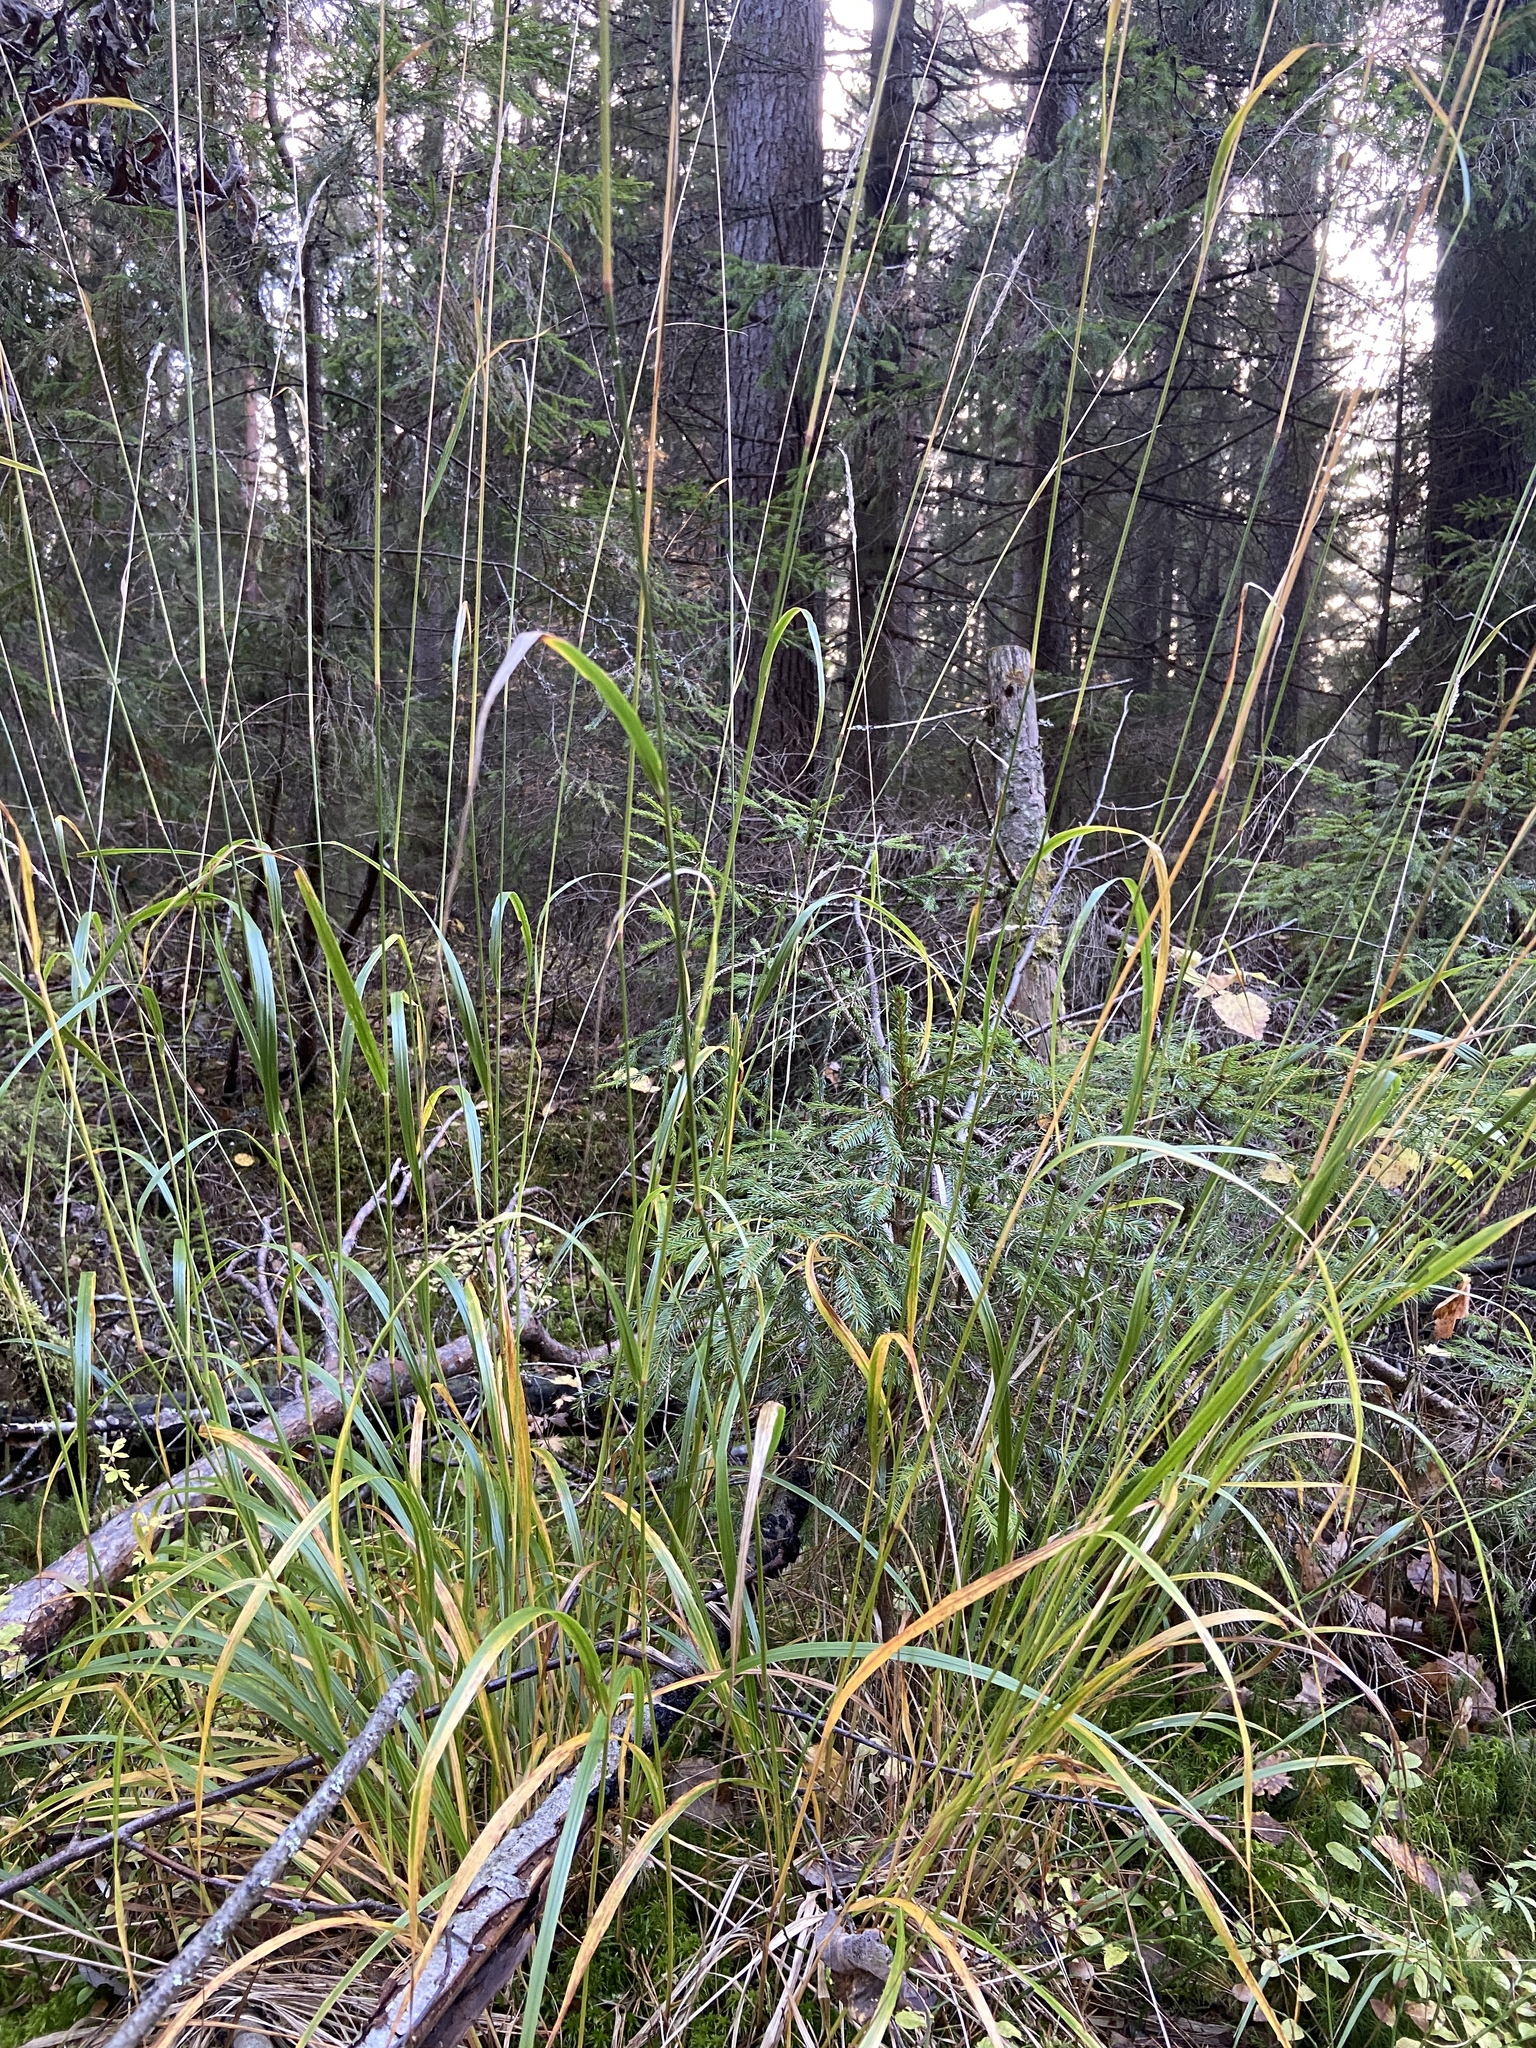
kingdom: Plantae
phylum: Tracheophyta
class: Liliopsida
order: Poales
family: Poaceae
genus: Calamagrostis
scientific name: Calamagrostis arundinacea
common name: Metskastik
